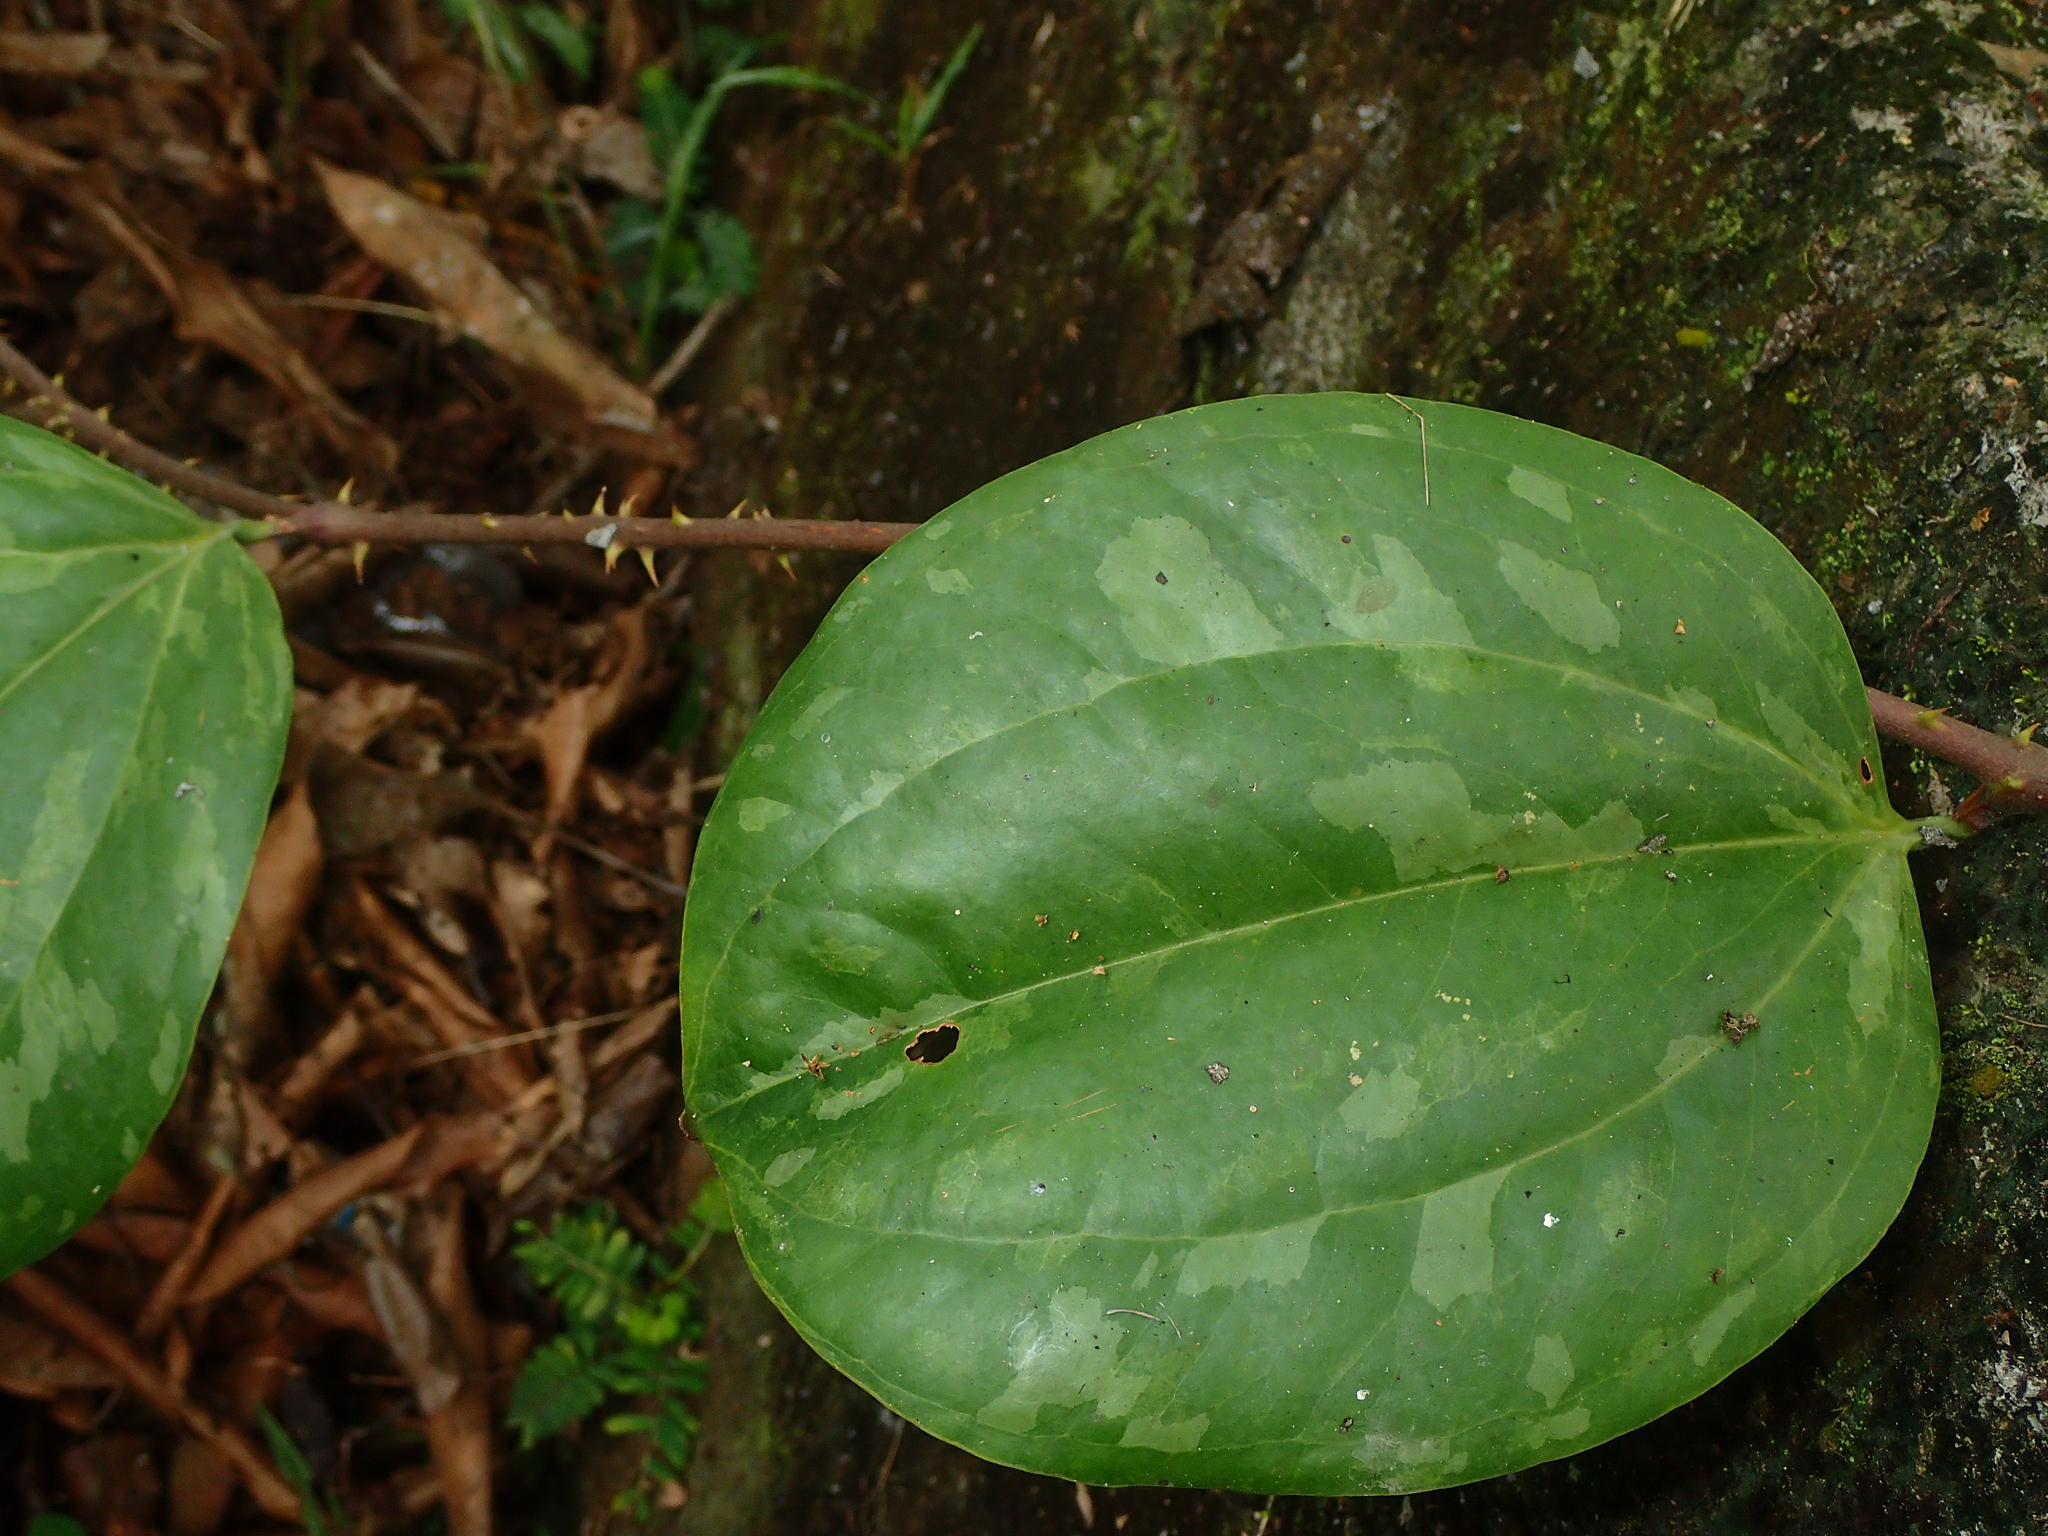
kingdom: Plantae
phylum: Tracheophyta
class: Liliopsida
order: Liliales
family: Smilacaceae
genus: Smilax
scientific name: Smilax anceps
